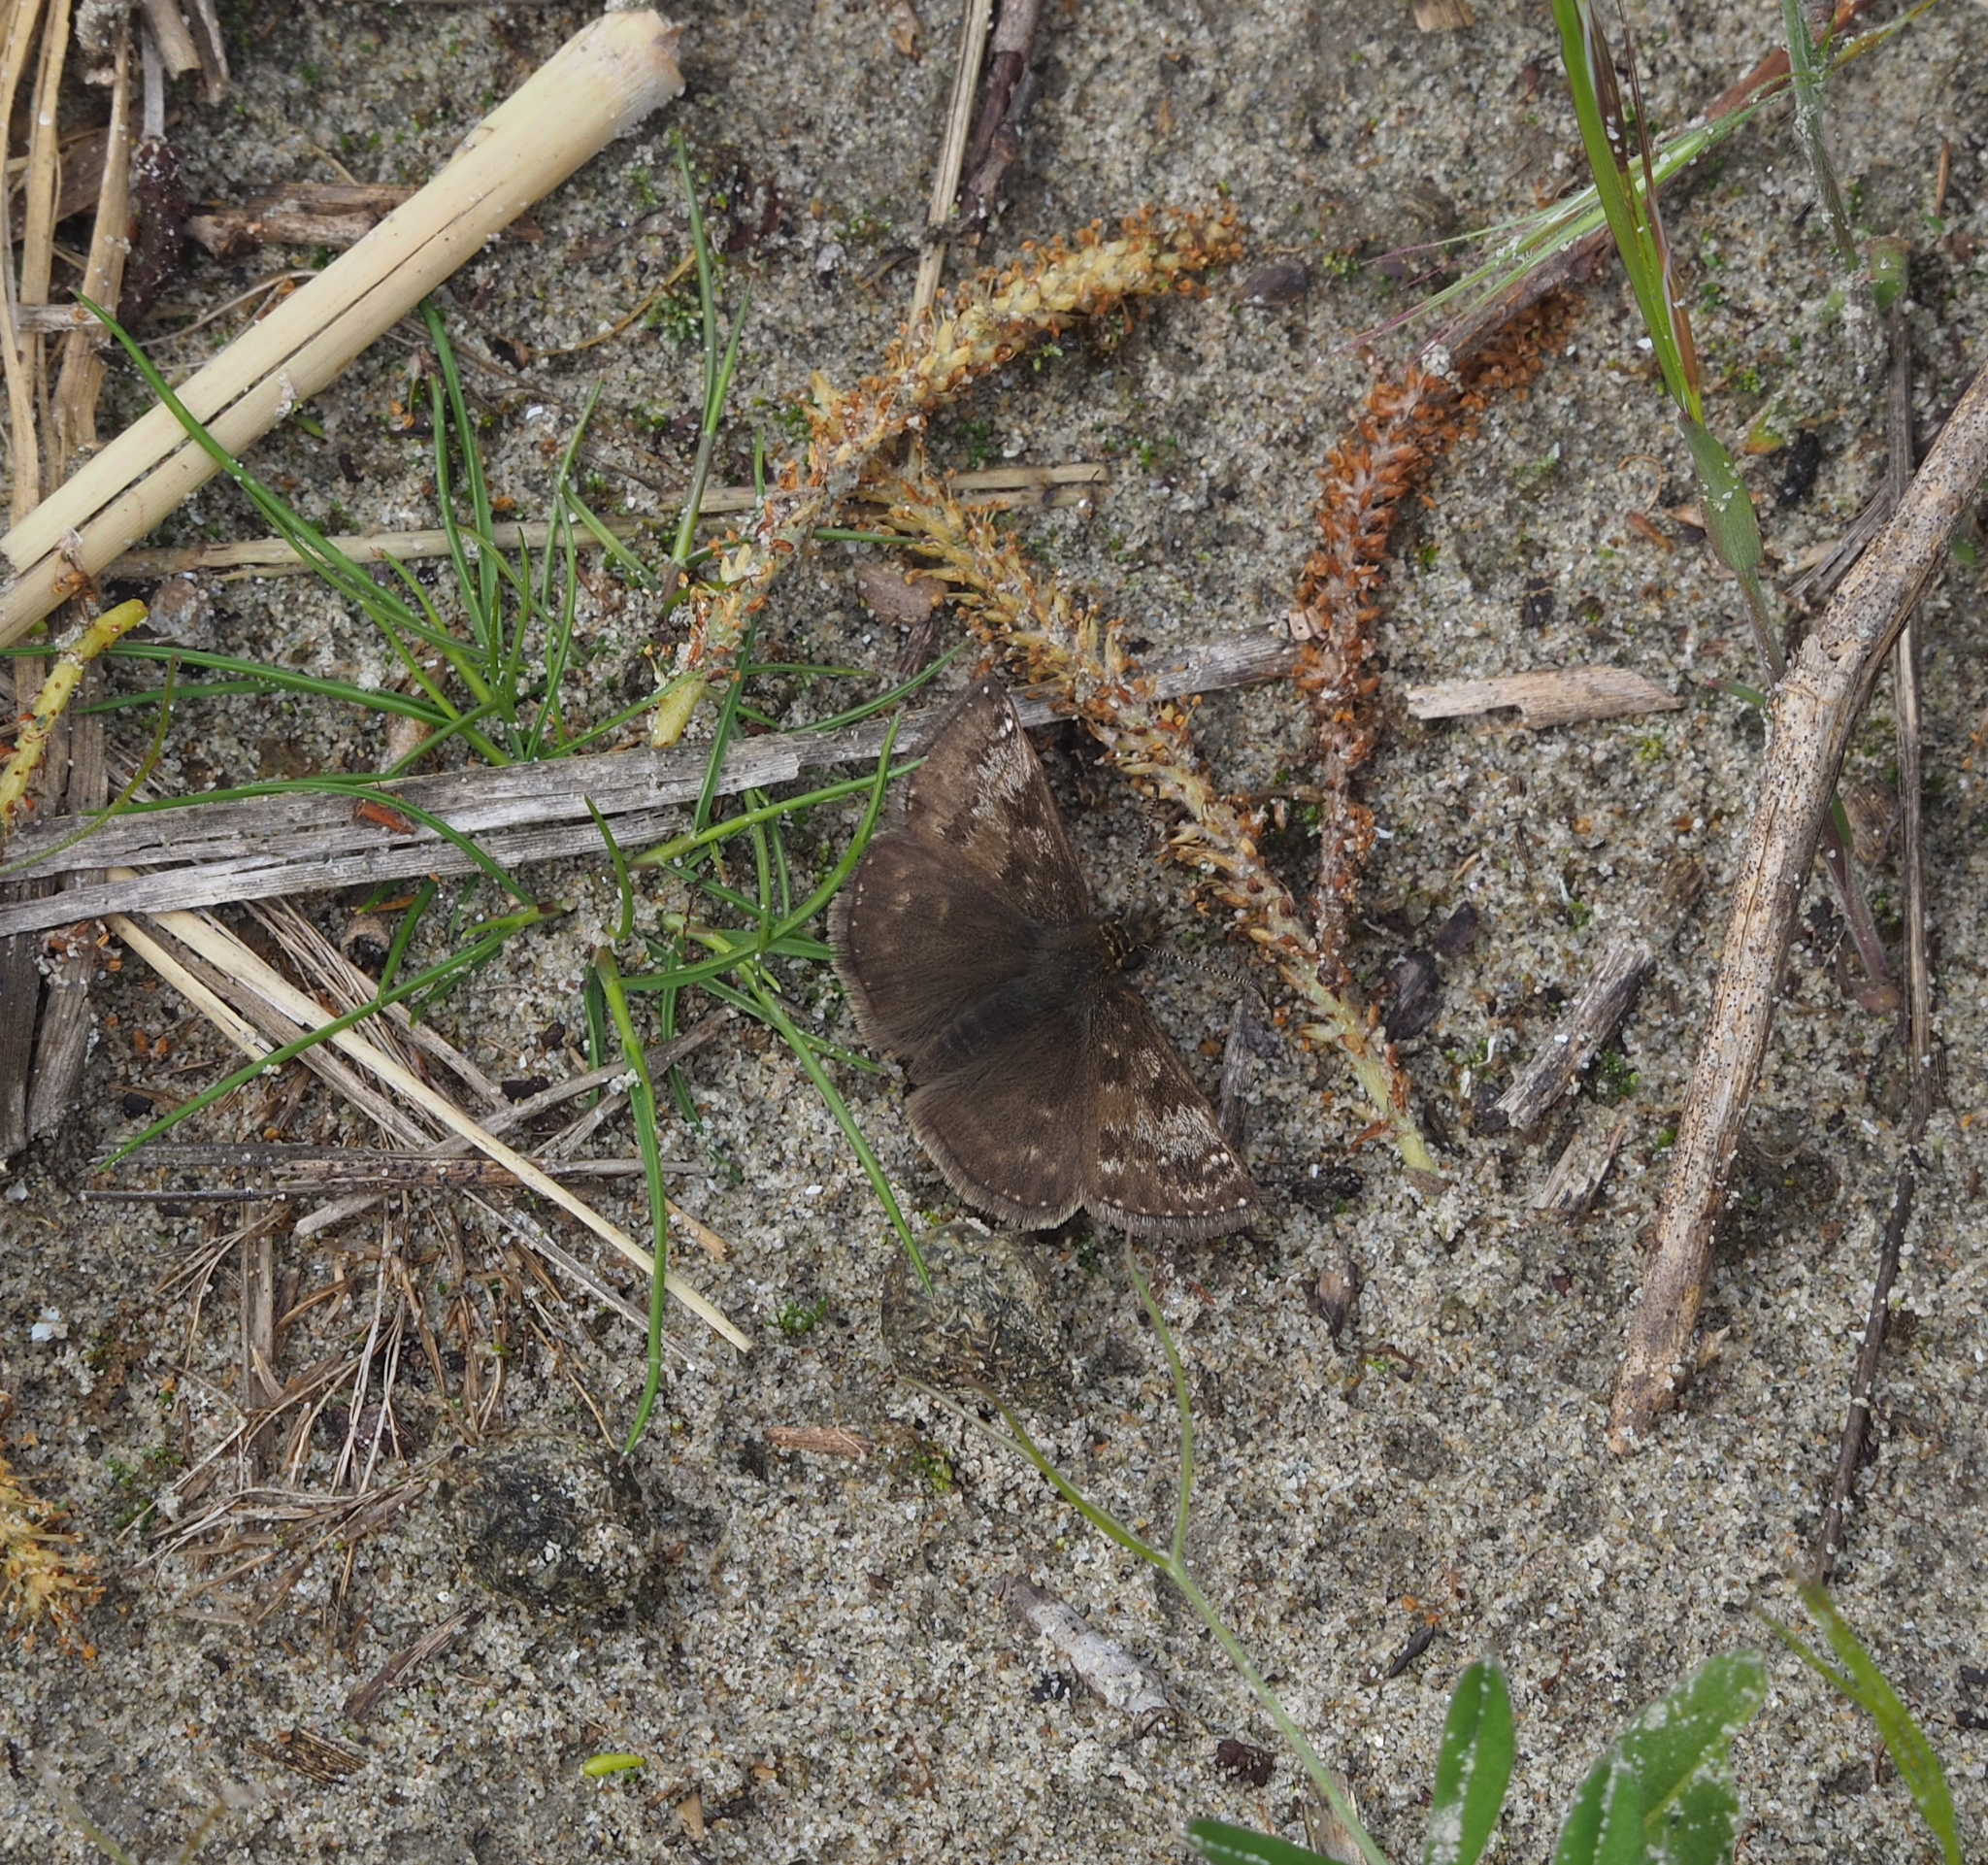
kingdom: Animalia
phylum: Arthropoda
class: Insecta
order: Lepidoptera
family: Hesperiidae
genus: Erynnis
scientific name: Erynnis tages
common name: Dingy skipper
